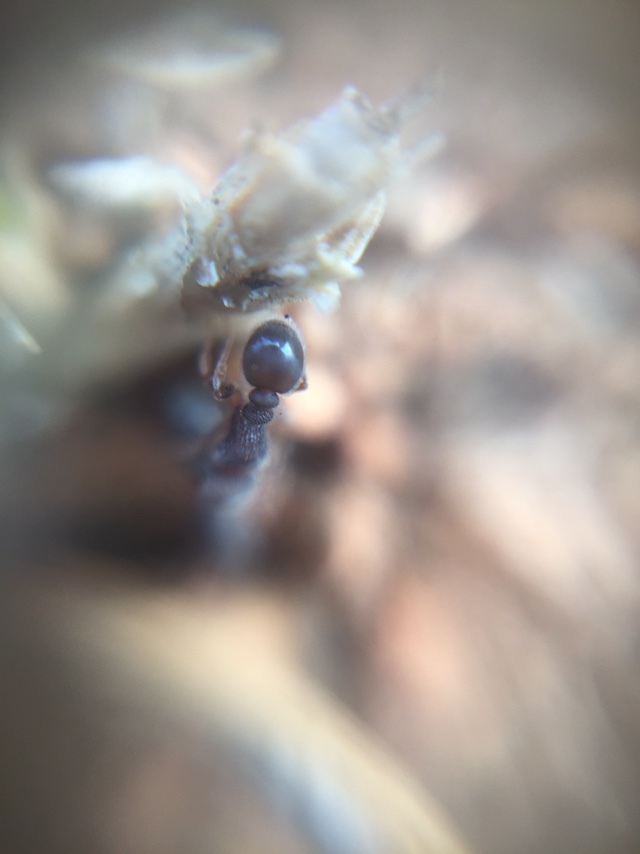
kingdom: Animalia
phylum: Arthropoda
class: Insecta
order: Hymenoptera
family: Formicidae
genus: Tetramorium
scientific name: Tetramorium walshi
